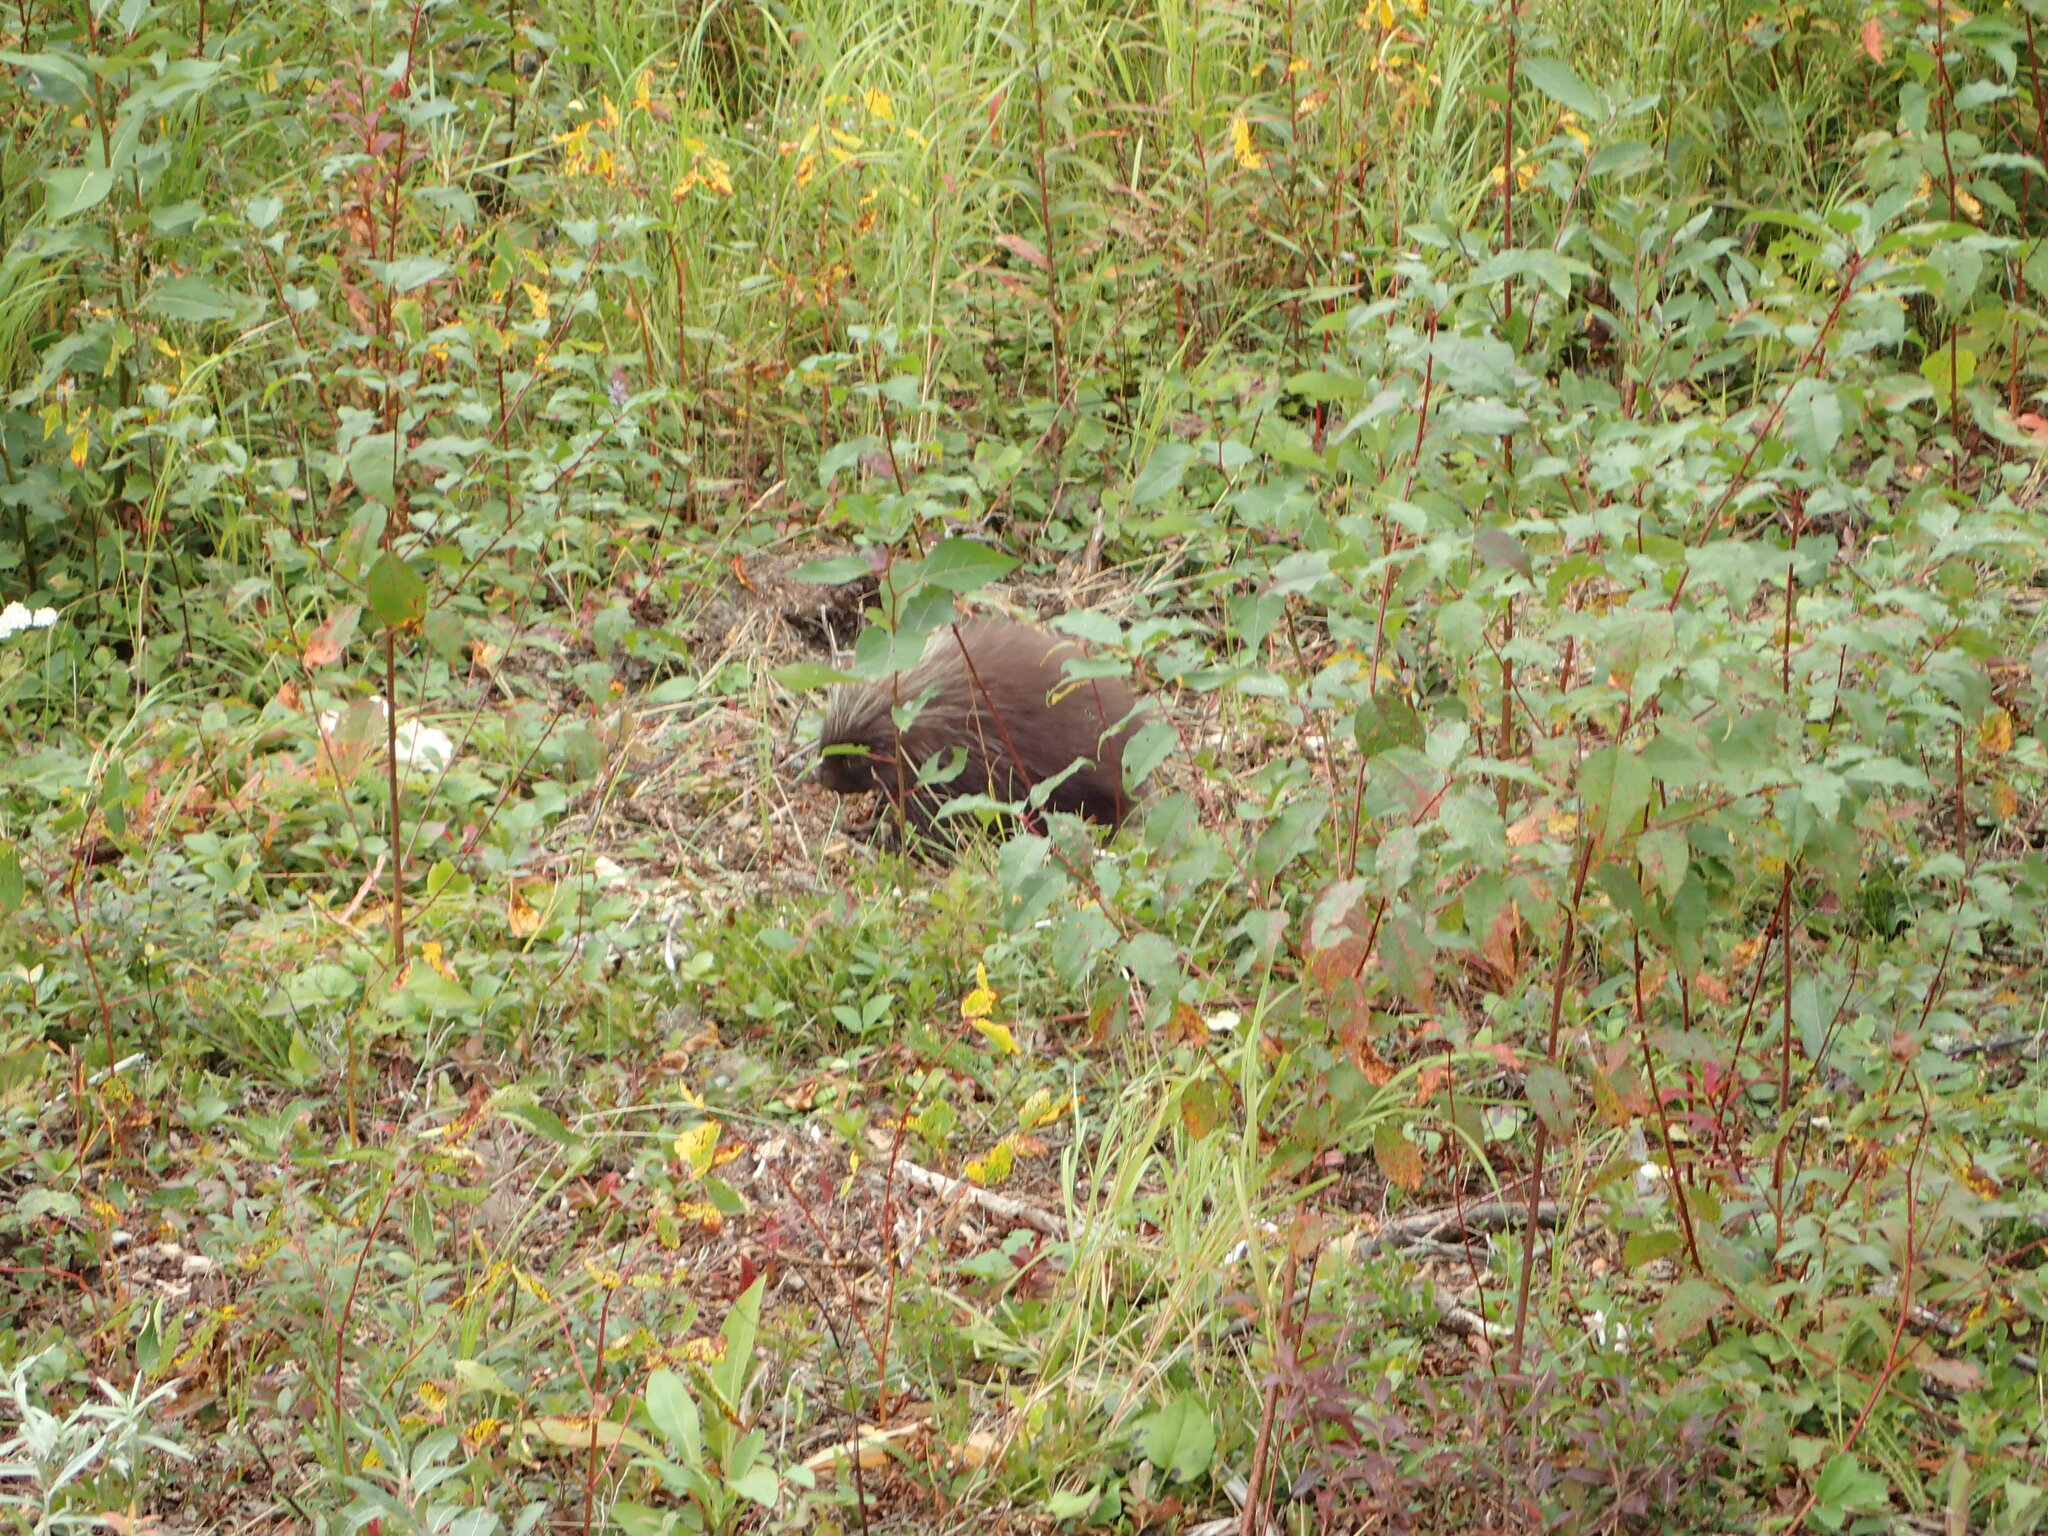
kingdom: Animalia
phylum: Chordata
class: Mammalia
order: Rodentia
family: Erethizontidae
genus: Erethizon
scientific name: Erethizon dorsatus
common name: North american porcupine
